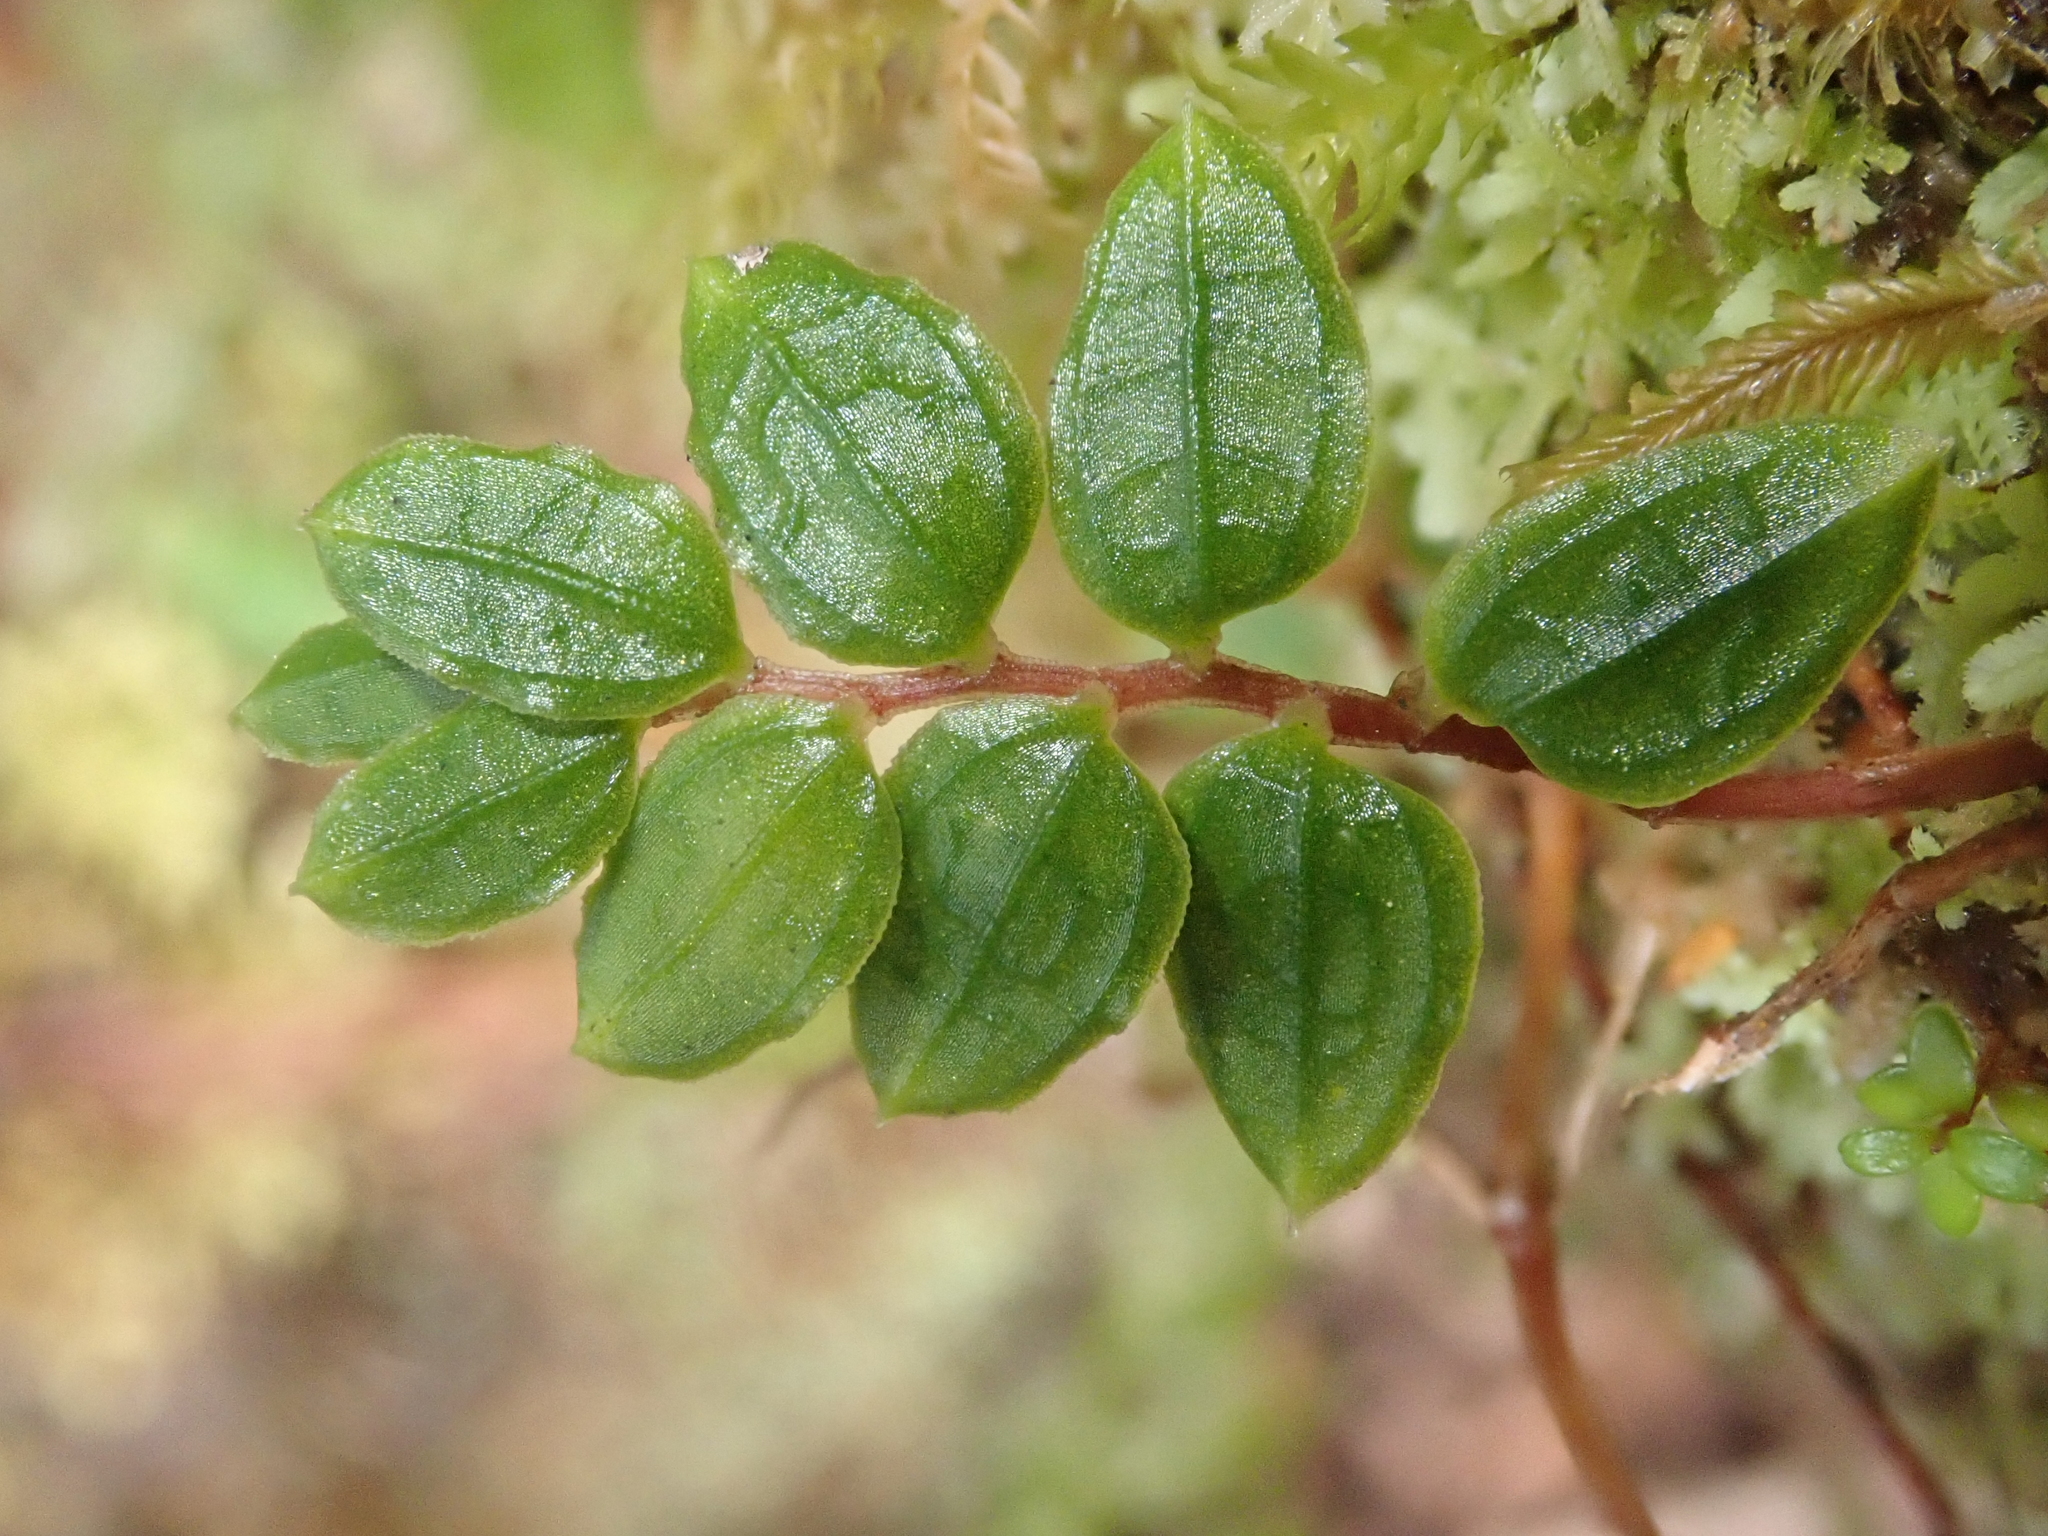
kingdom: Plantae
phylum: Tracheophyta
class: Liliopsida
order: Liliales
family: Alstroemeriaceae
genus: Luzuriaga
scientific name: Luzuriaga polyphylla
